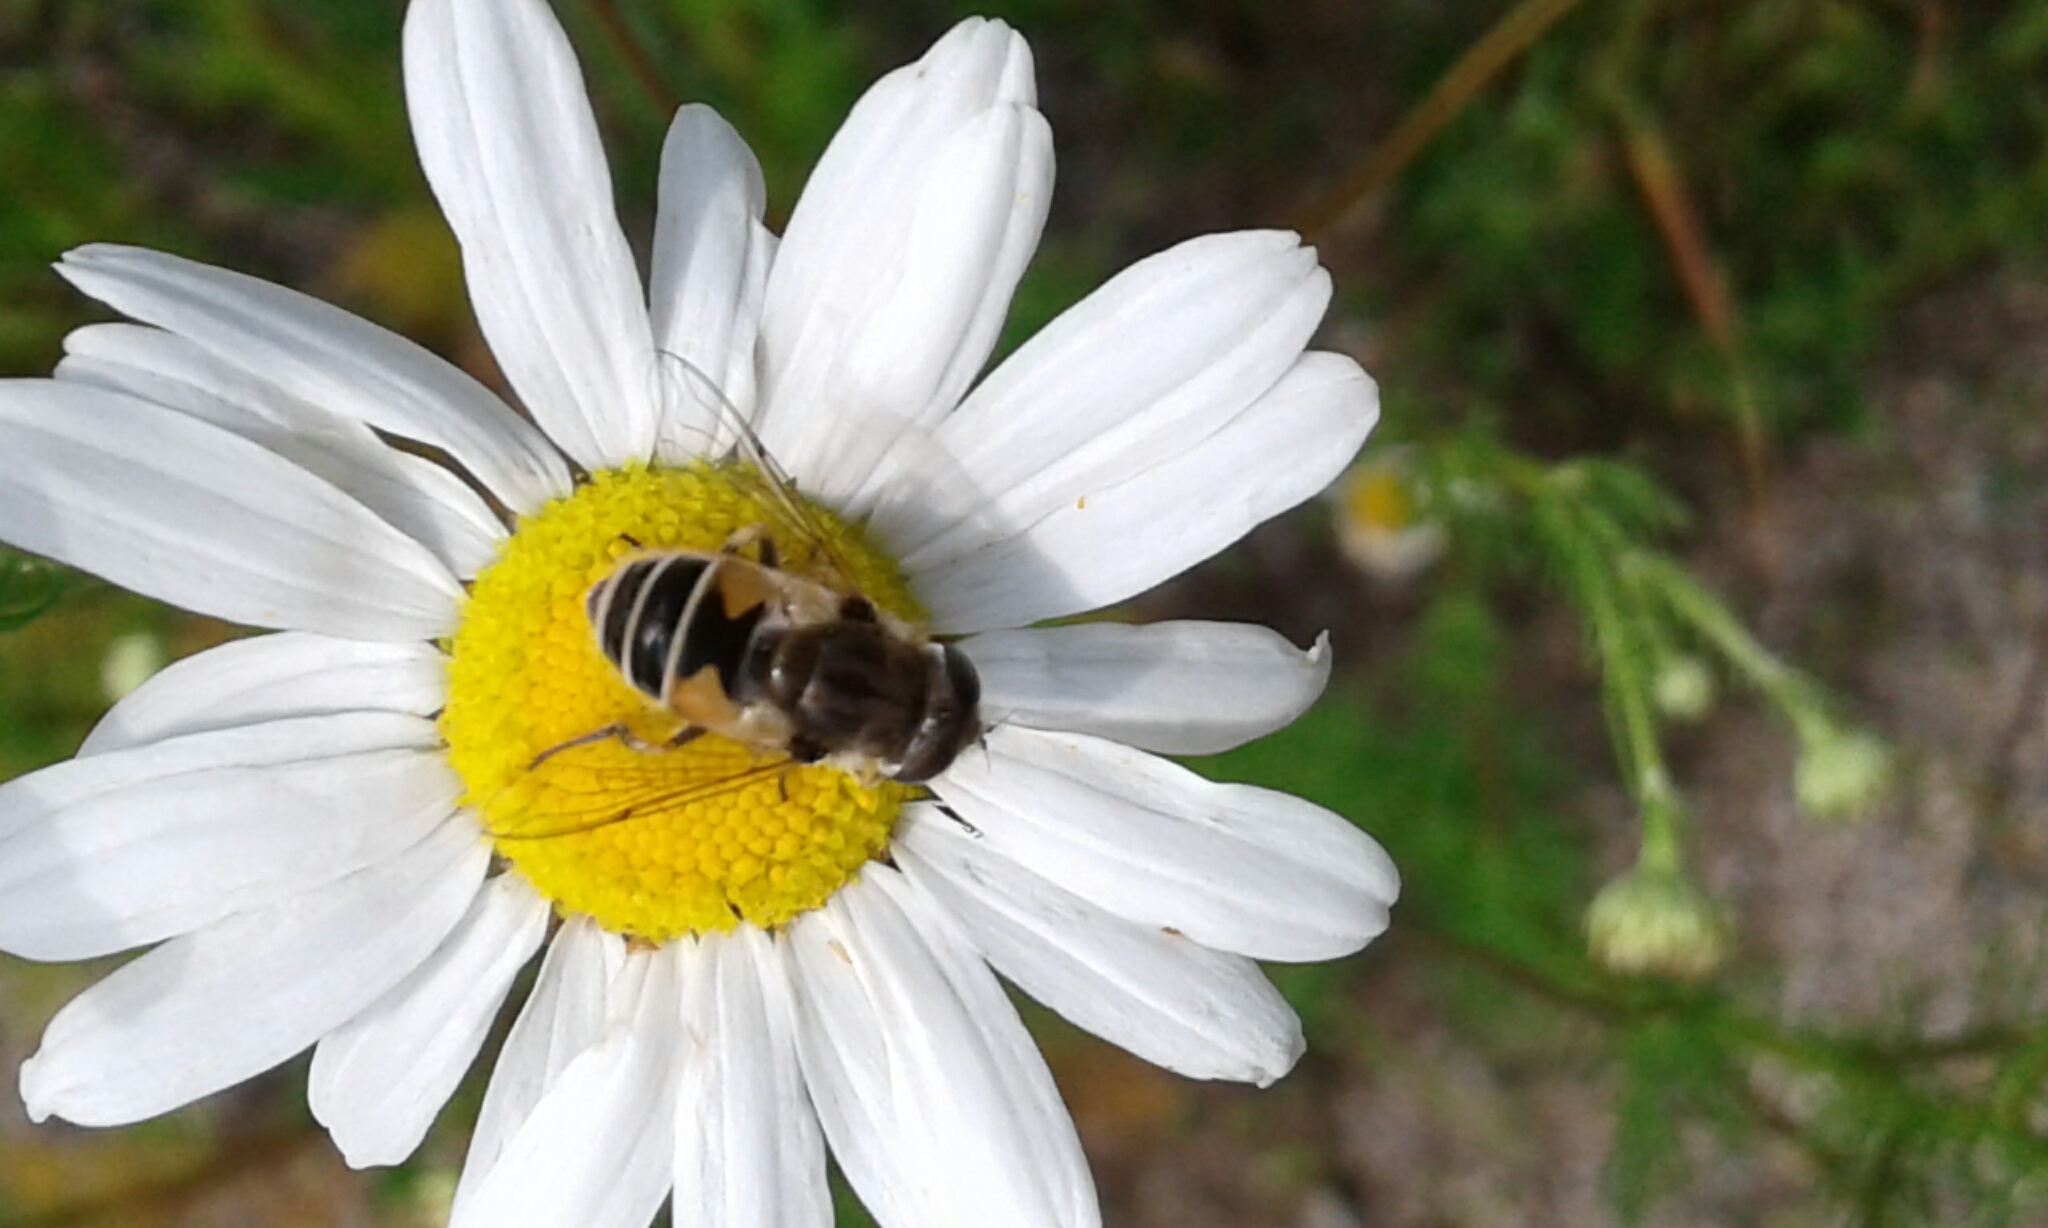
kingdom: Animalia
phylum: Arthropoda
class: Insecta
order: Diptera
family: Syrphidae
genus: Eristalis
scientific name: Eristalis arbustorum
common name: Hover fly
